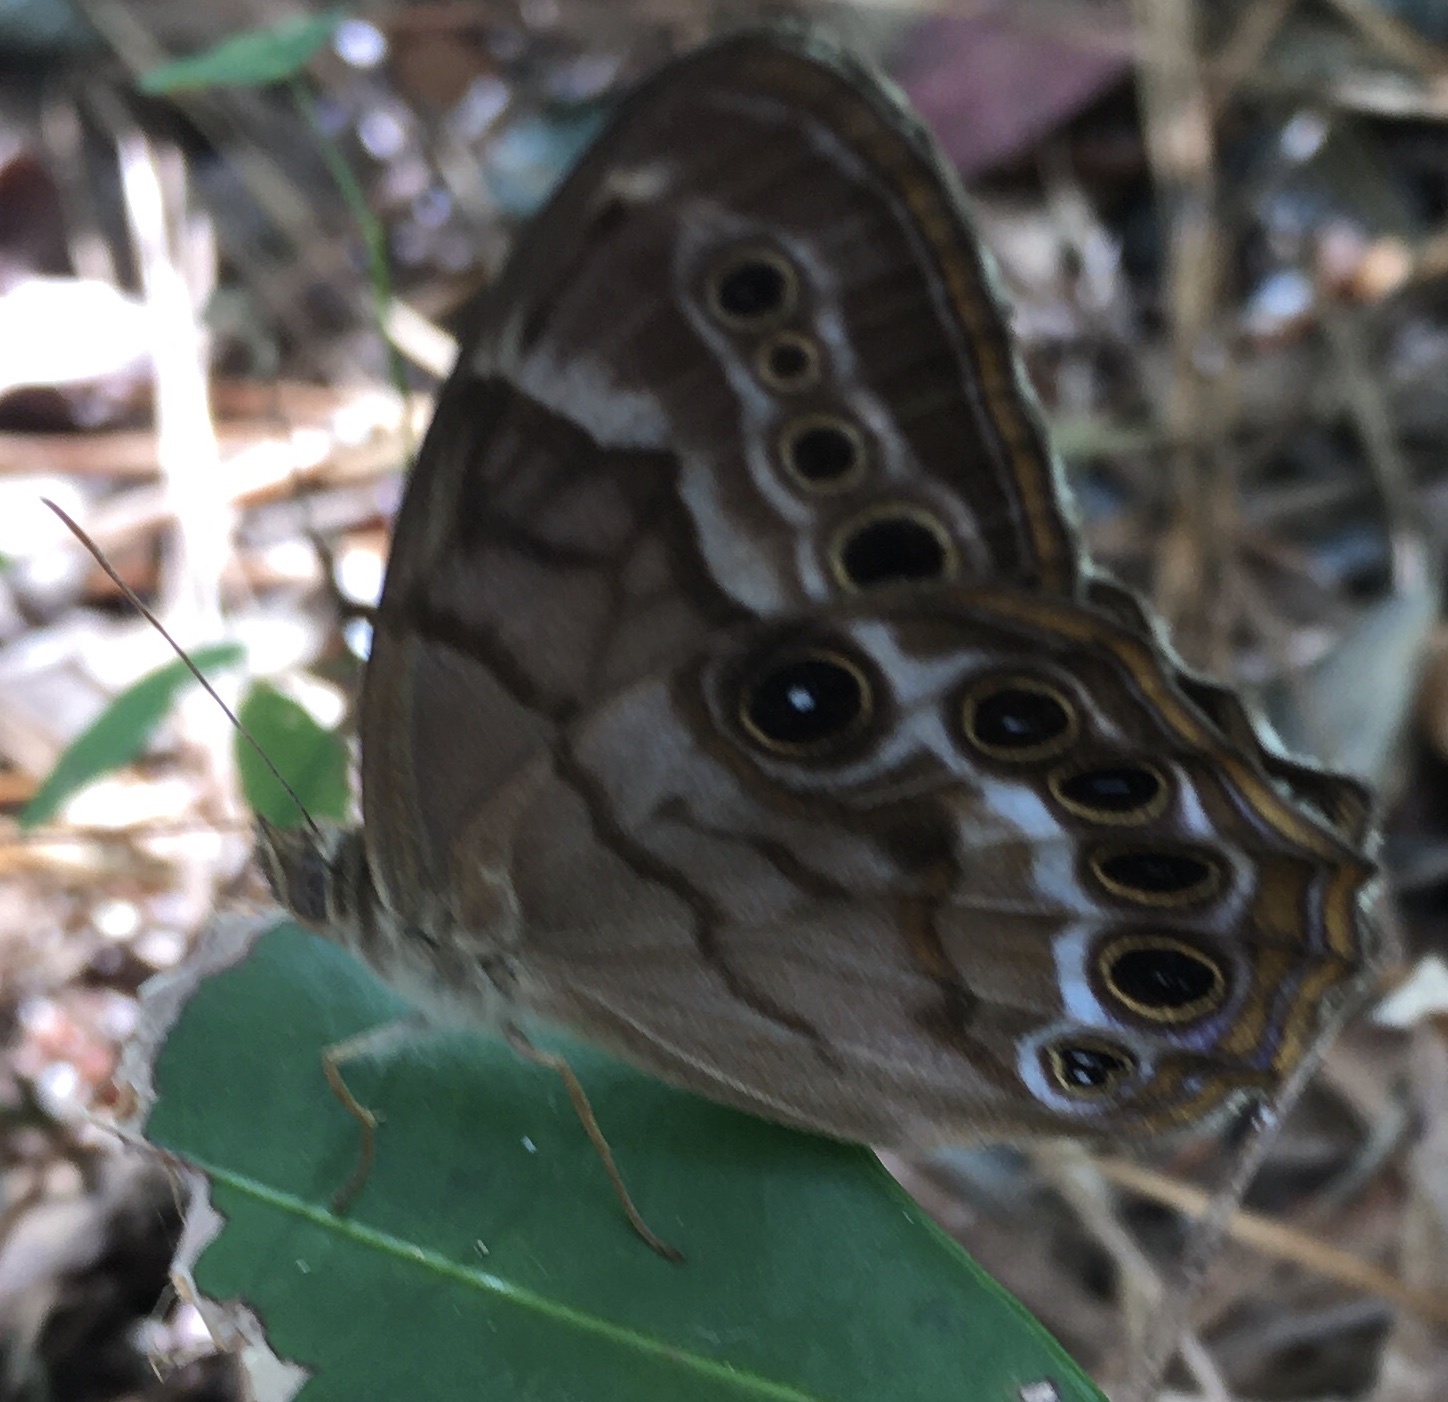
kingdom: Animalia
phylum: Arthropoda
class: Insecta
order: Lepidoptera
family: Nymphalidae
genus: Enodia
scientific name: Enodia portlandia
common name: Southern pearly-eye
